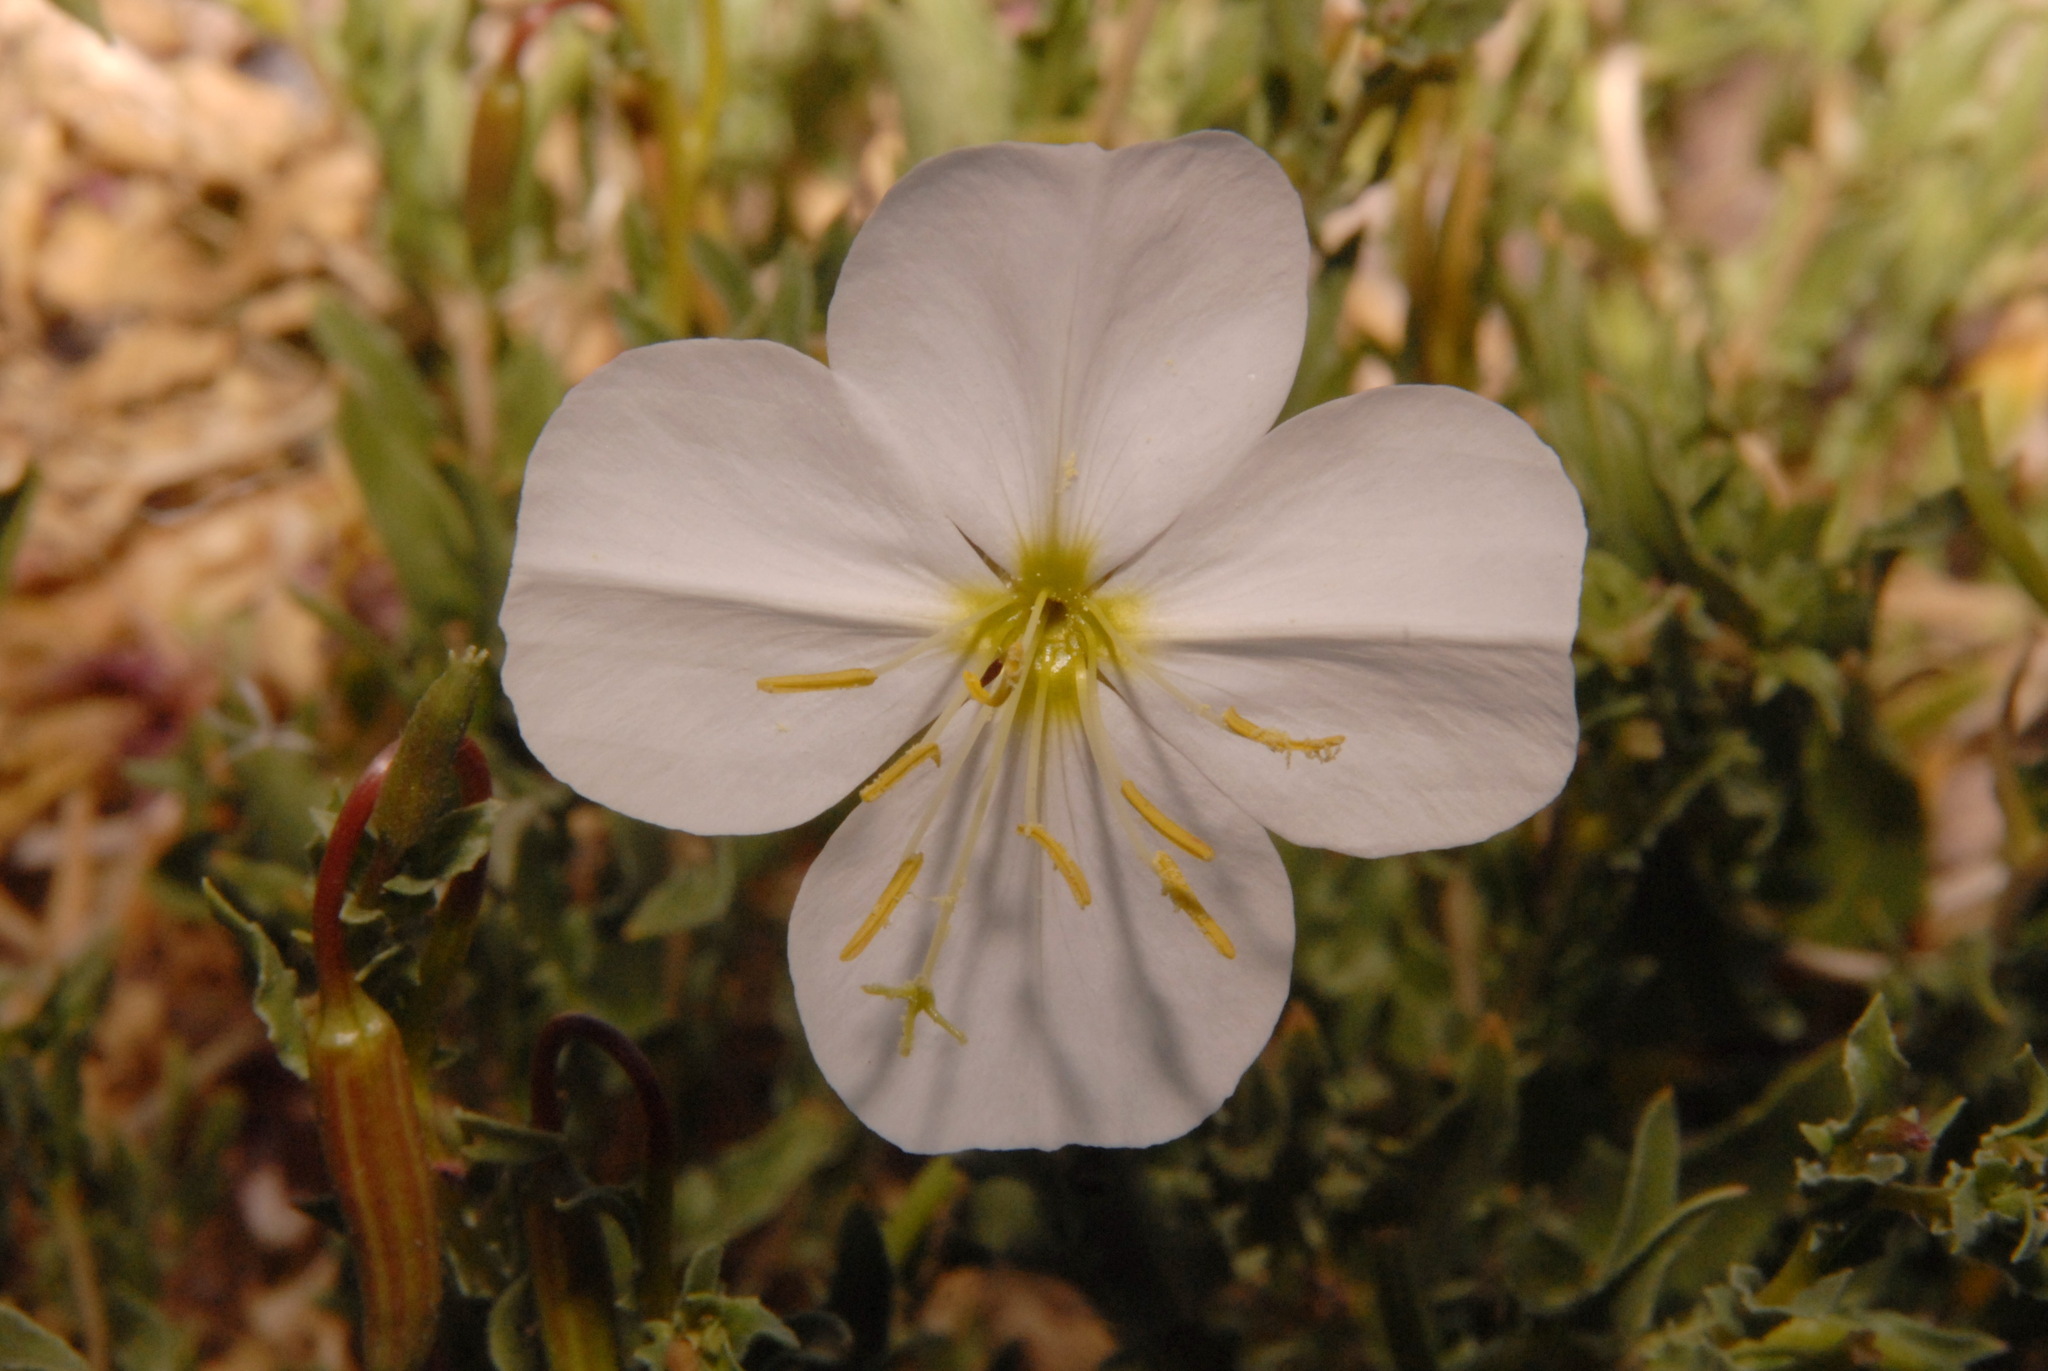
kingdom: Plantae
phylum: Tracheophyta
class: Magnoliopsida
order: Myrtales
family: Onagraceae
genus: Oenothera
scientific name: Oenothera pallida
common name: Pale evening-primrose
